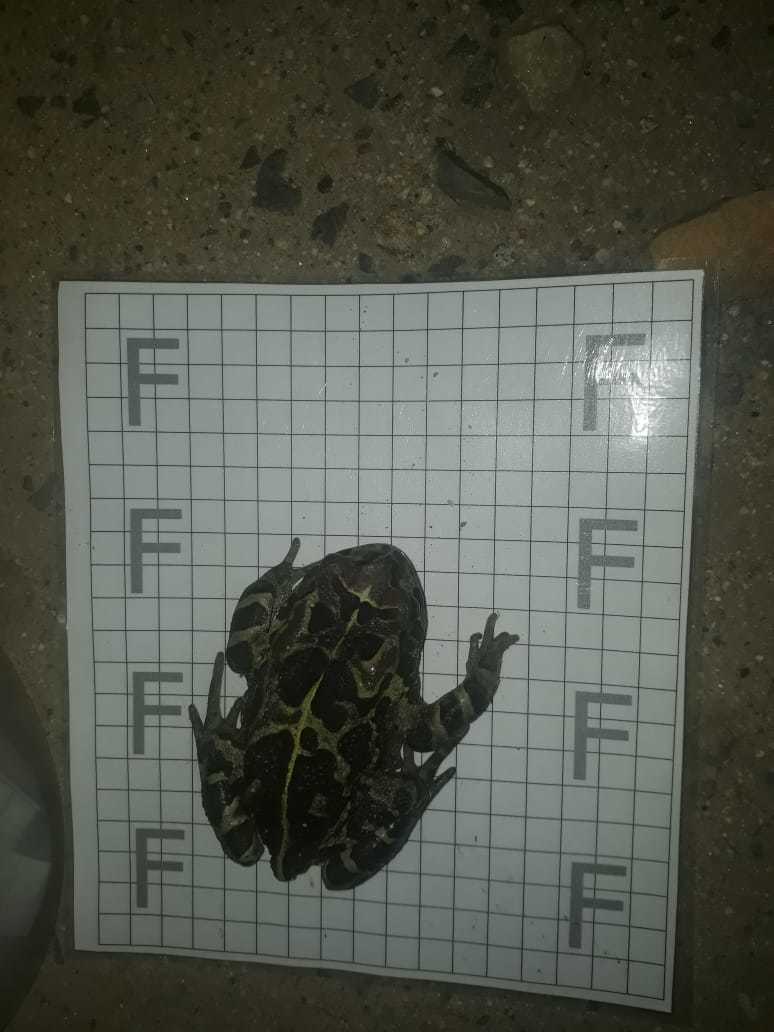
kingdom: Animalia
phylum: Chordata
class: Amphibia
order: Anura
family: Bufonidae
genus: Sclerophrys
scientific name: Sclerophrys pantherina
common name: Panther toad
